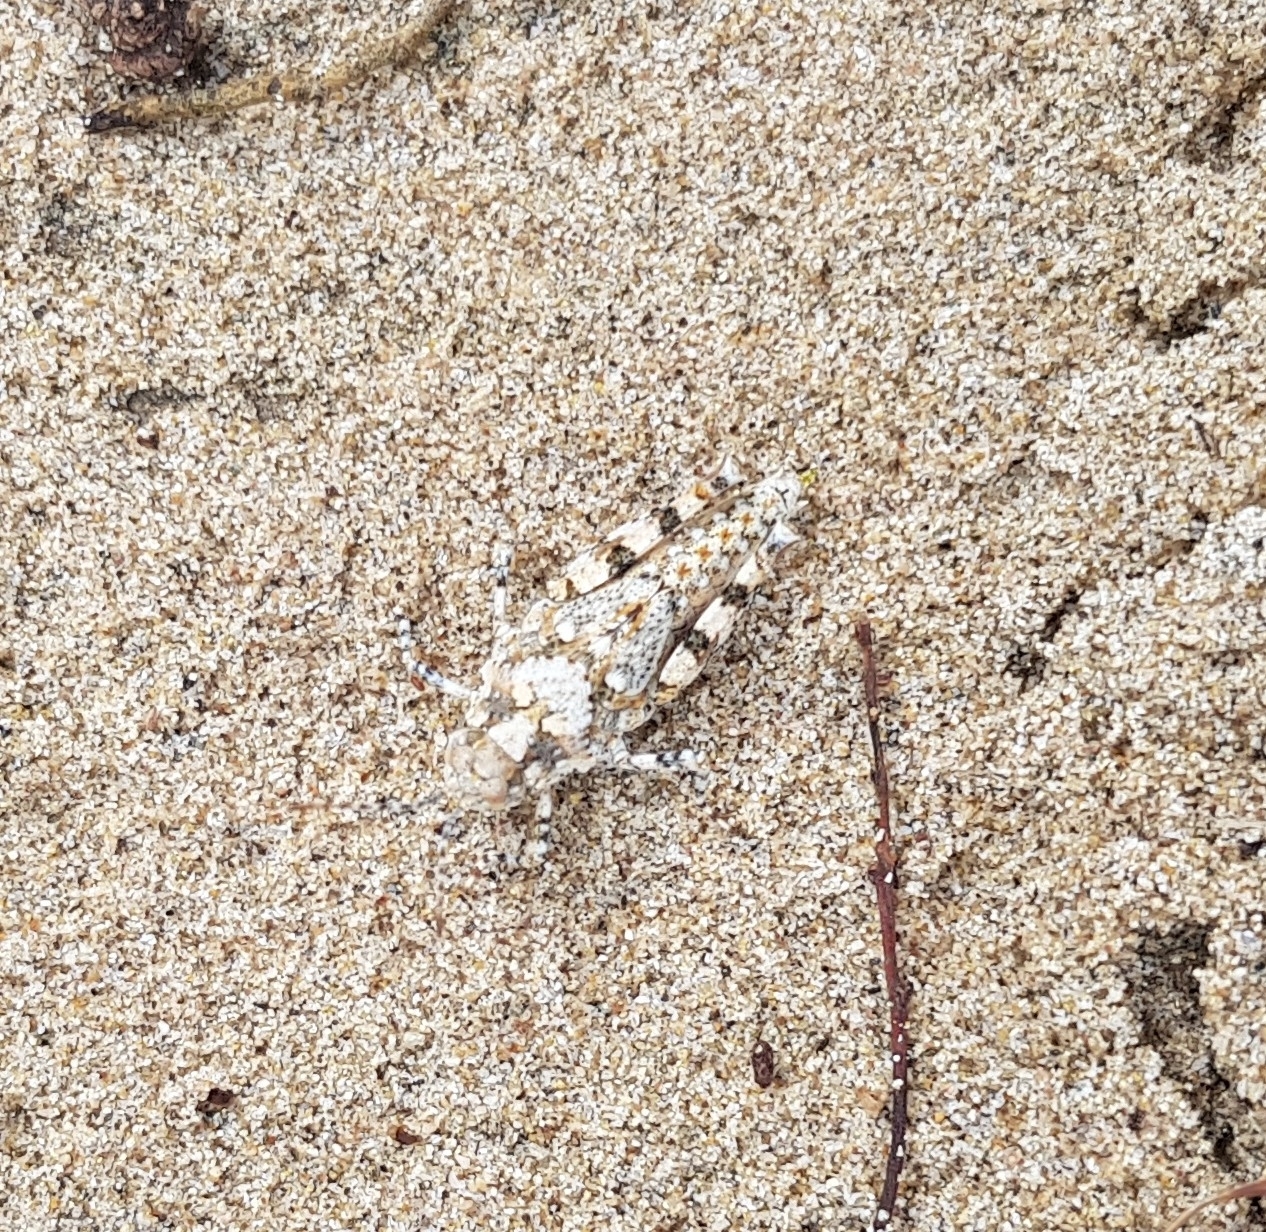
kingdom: Animalia
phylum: Arthropoda
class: Insecta
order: Orthoptera
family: Acrididae
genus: Heliastus
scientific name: Heliastus sumichrasti
